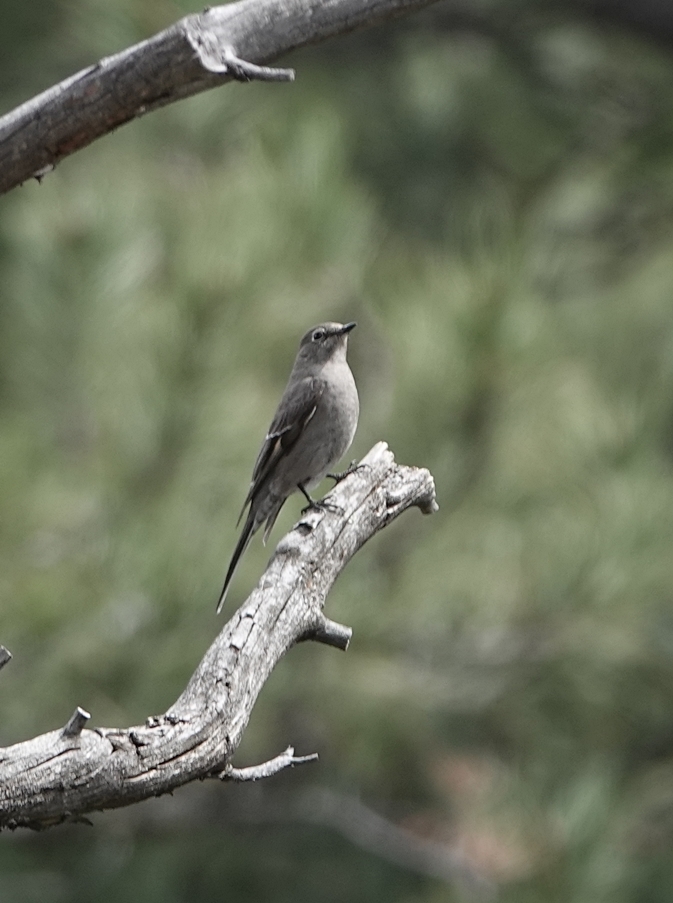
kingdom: Animalia
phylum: Chordata
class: Aves
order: Passeriformes
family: Turdidae
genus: Myadestes
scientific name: Myadestes townsendi
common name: Townsend's solitaire
